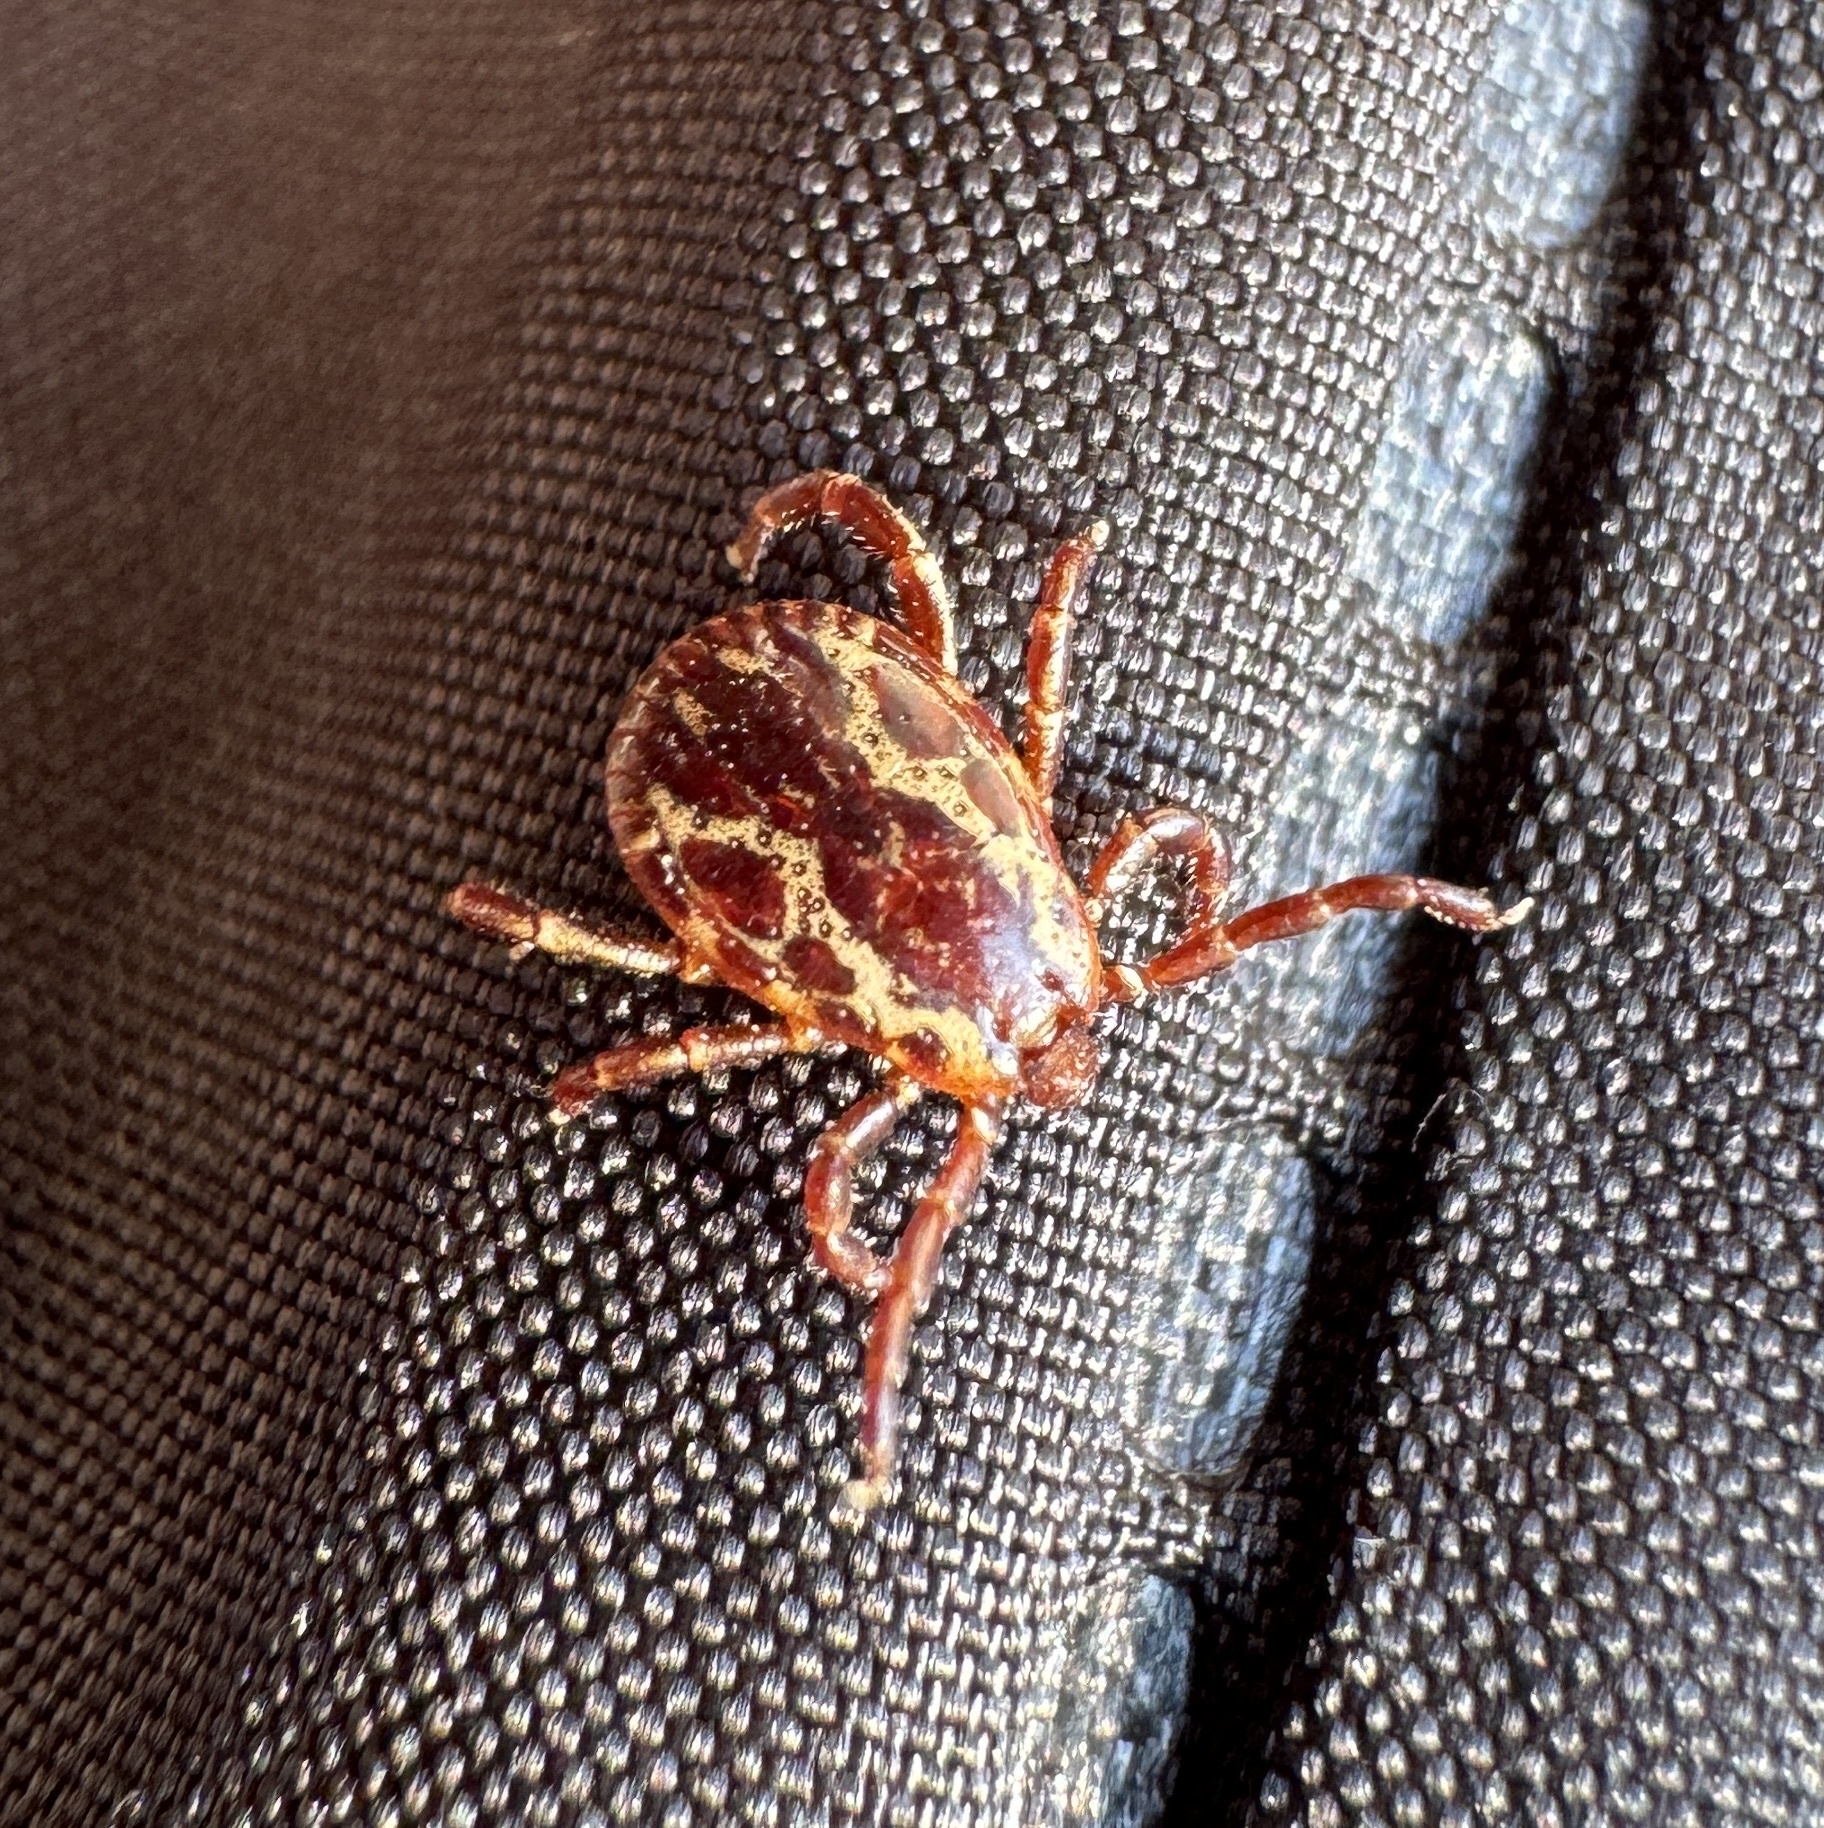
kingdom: Animalia
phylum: Arthropoda
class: Arachnida
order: Ixodida
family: Ixodidae
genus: Dermacentor
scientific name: Dermacentor variabilis
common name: American dog tick
